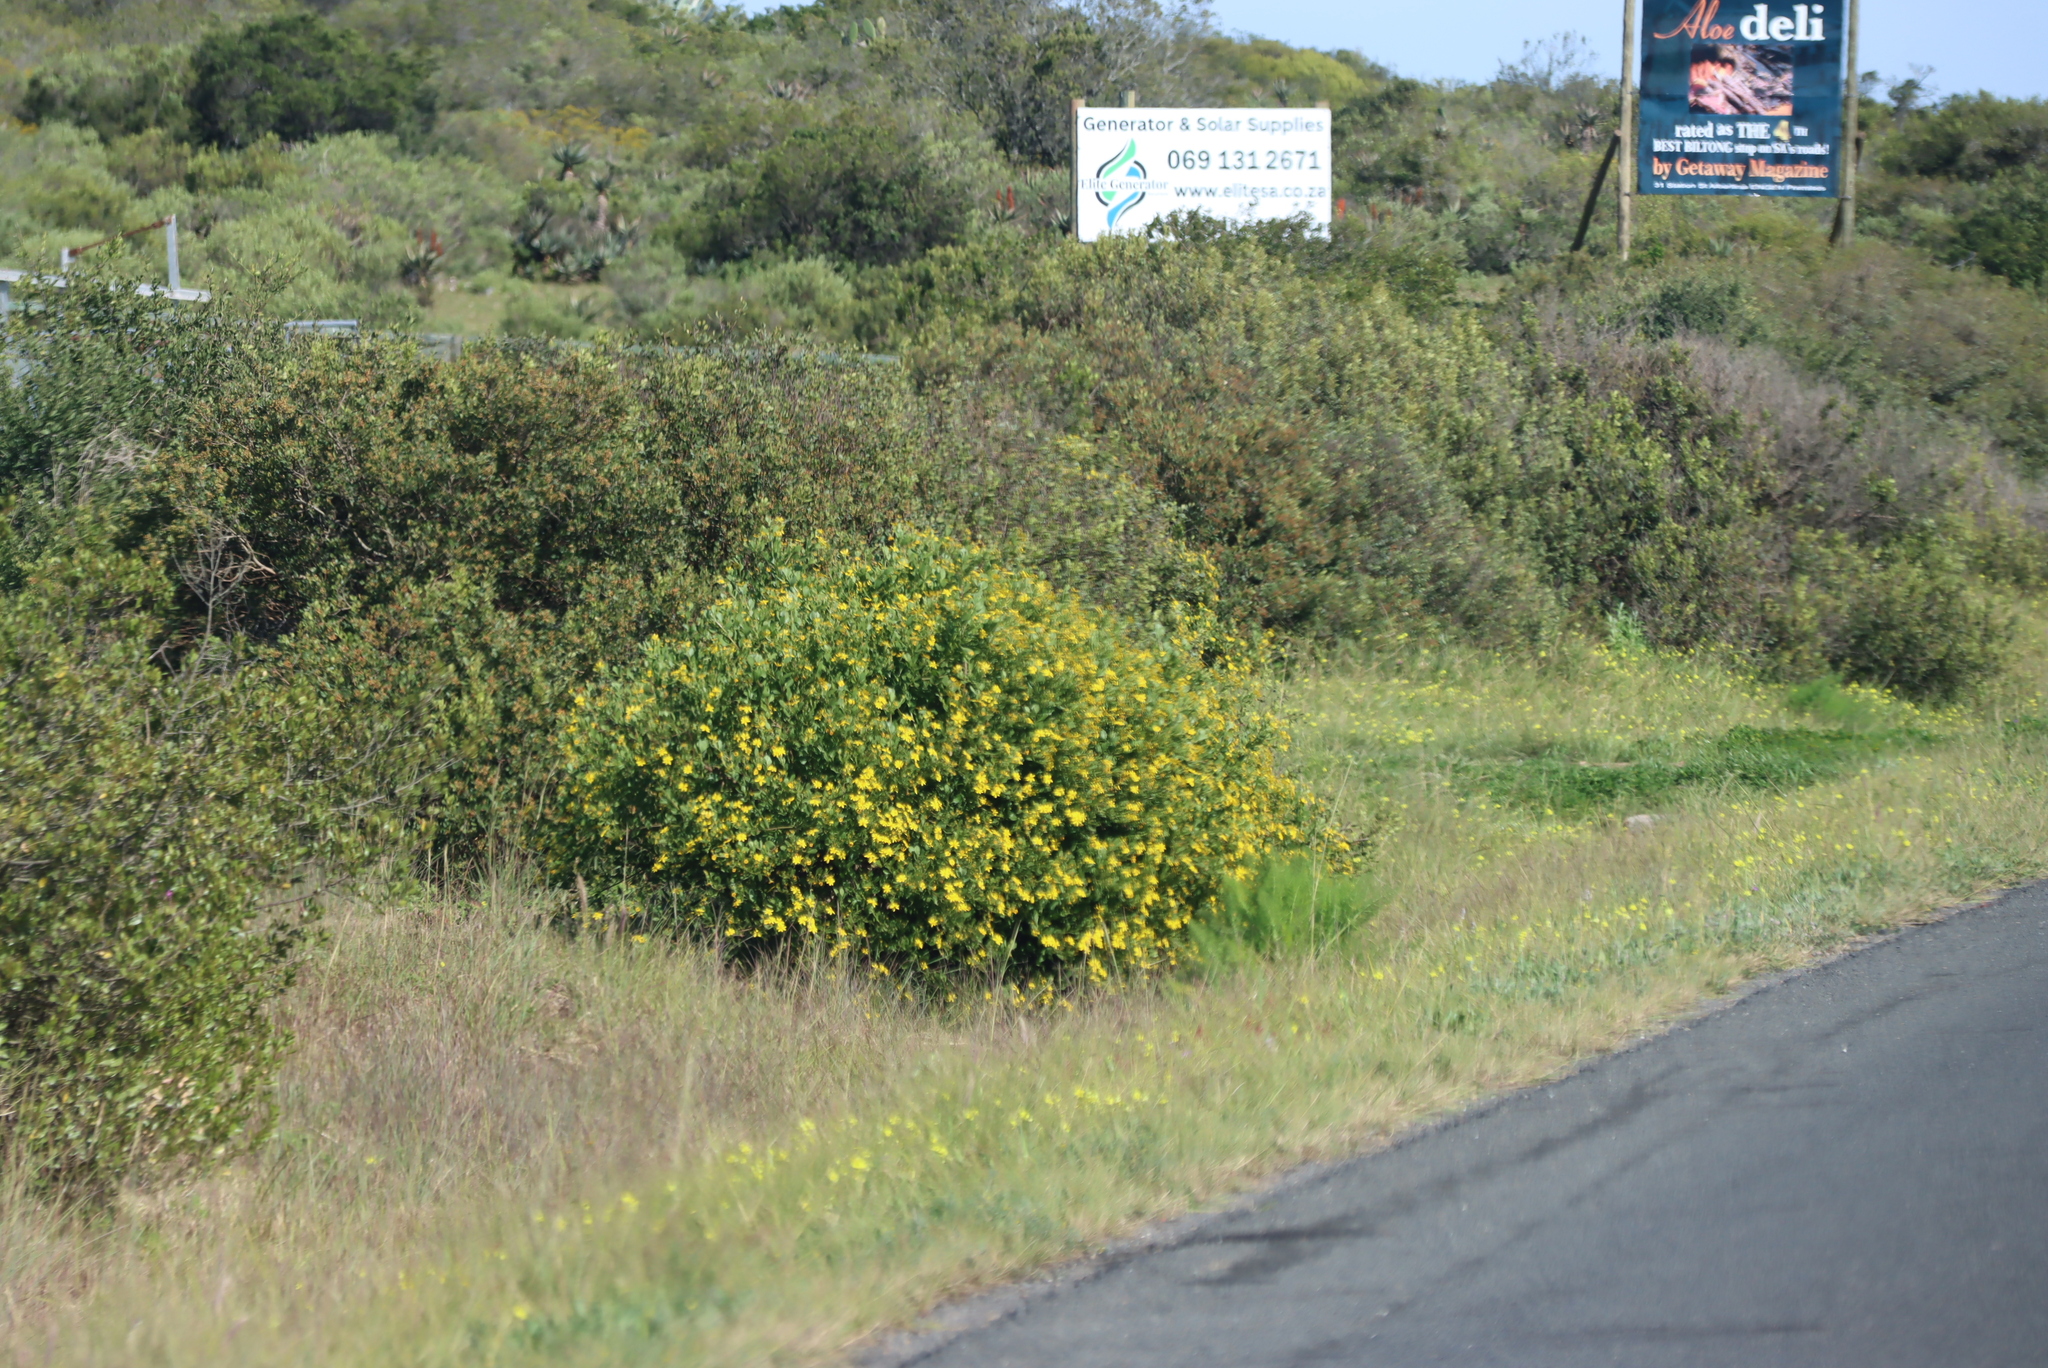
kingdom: Plantae
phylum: Tracheophyta
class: Magnoliopsida
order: Oxalidales
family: Oxalidaceae
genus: Oxalis
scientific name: Oxalis pes-caprae
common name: Bermuda-buttercup
